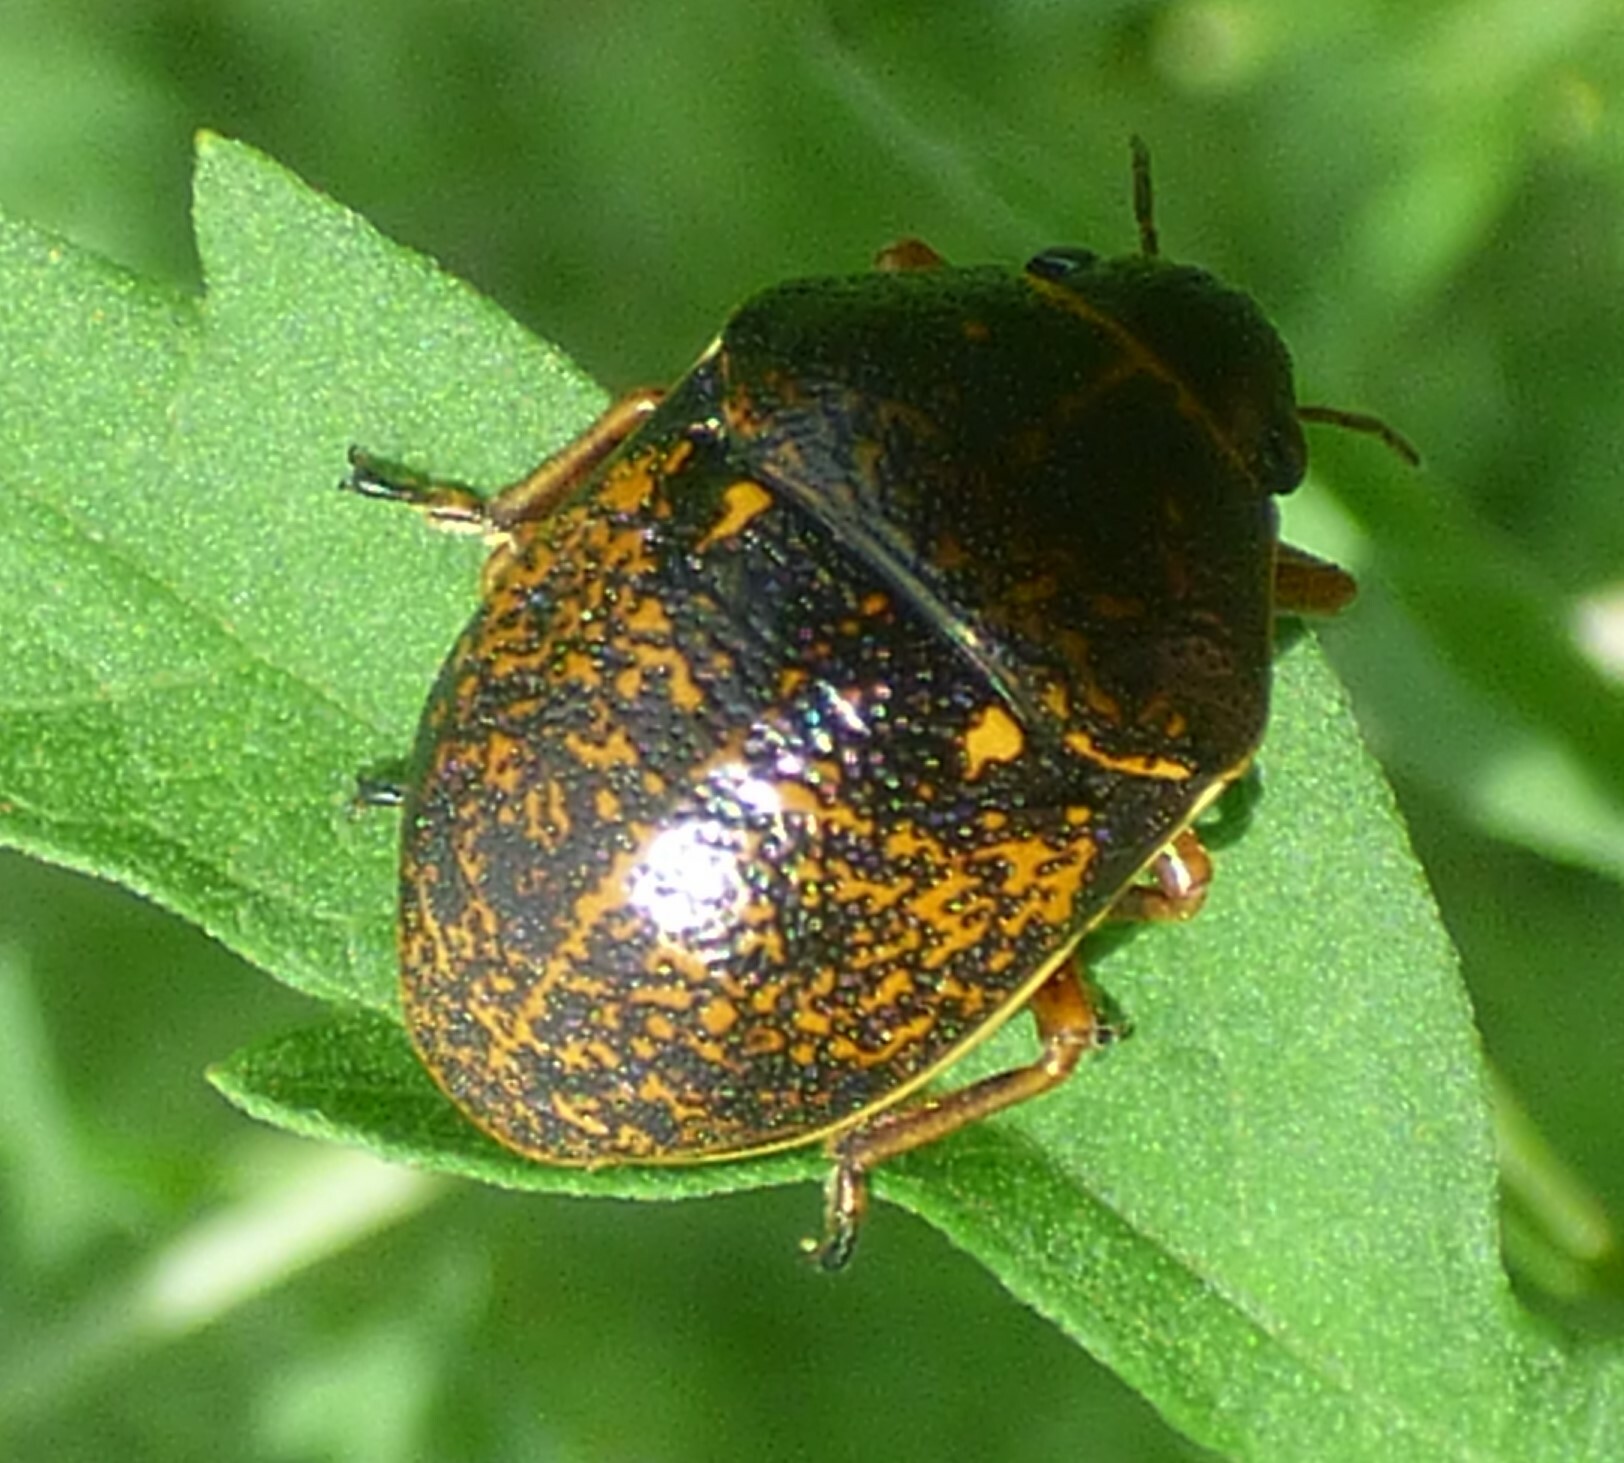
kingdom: Animalia
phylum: Arthropoda
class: Insecta
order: Hemiptera
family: Scutelleridae
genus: Orsilochides
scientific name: Orsilochides guttata
